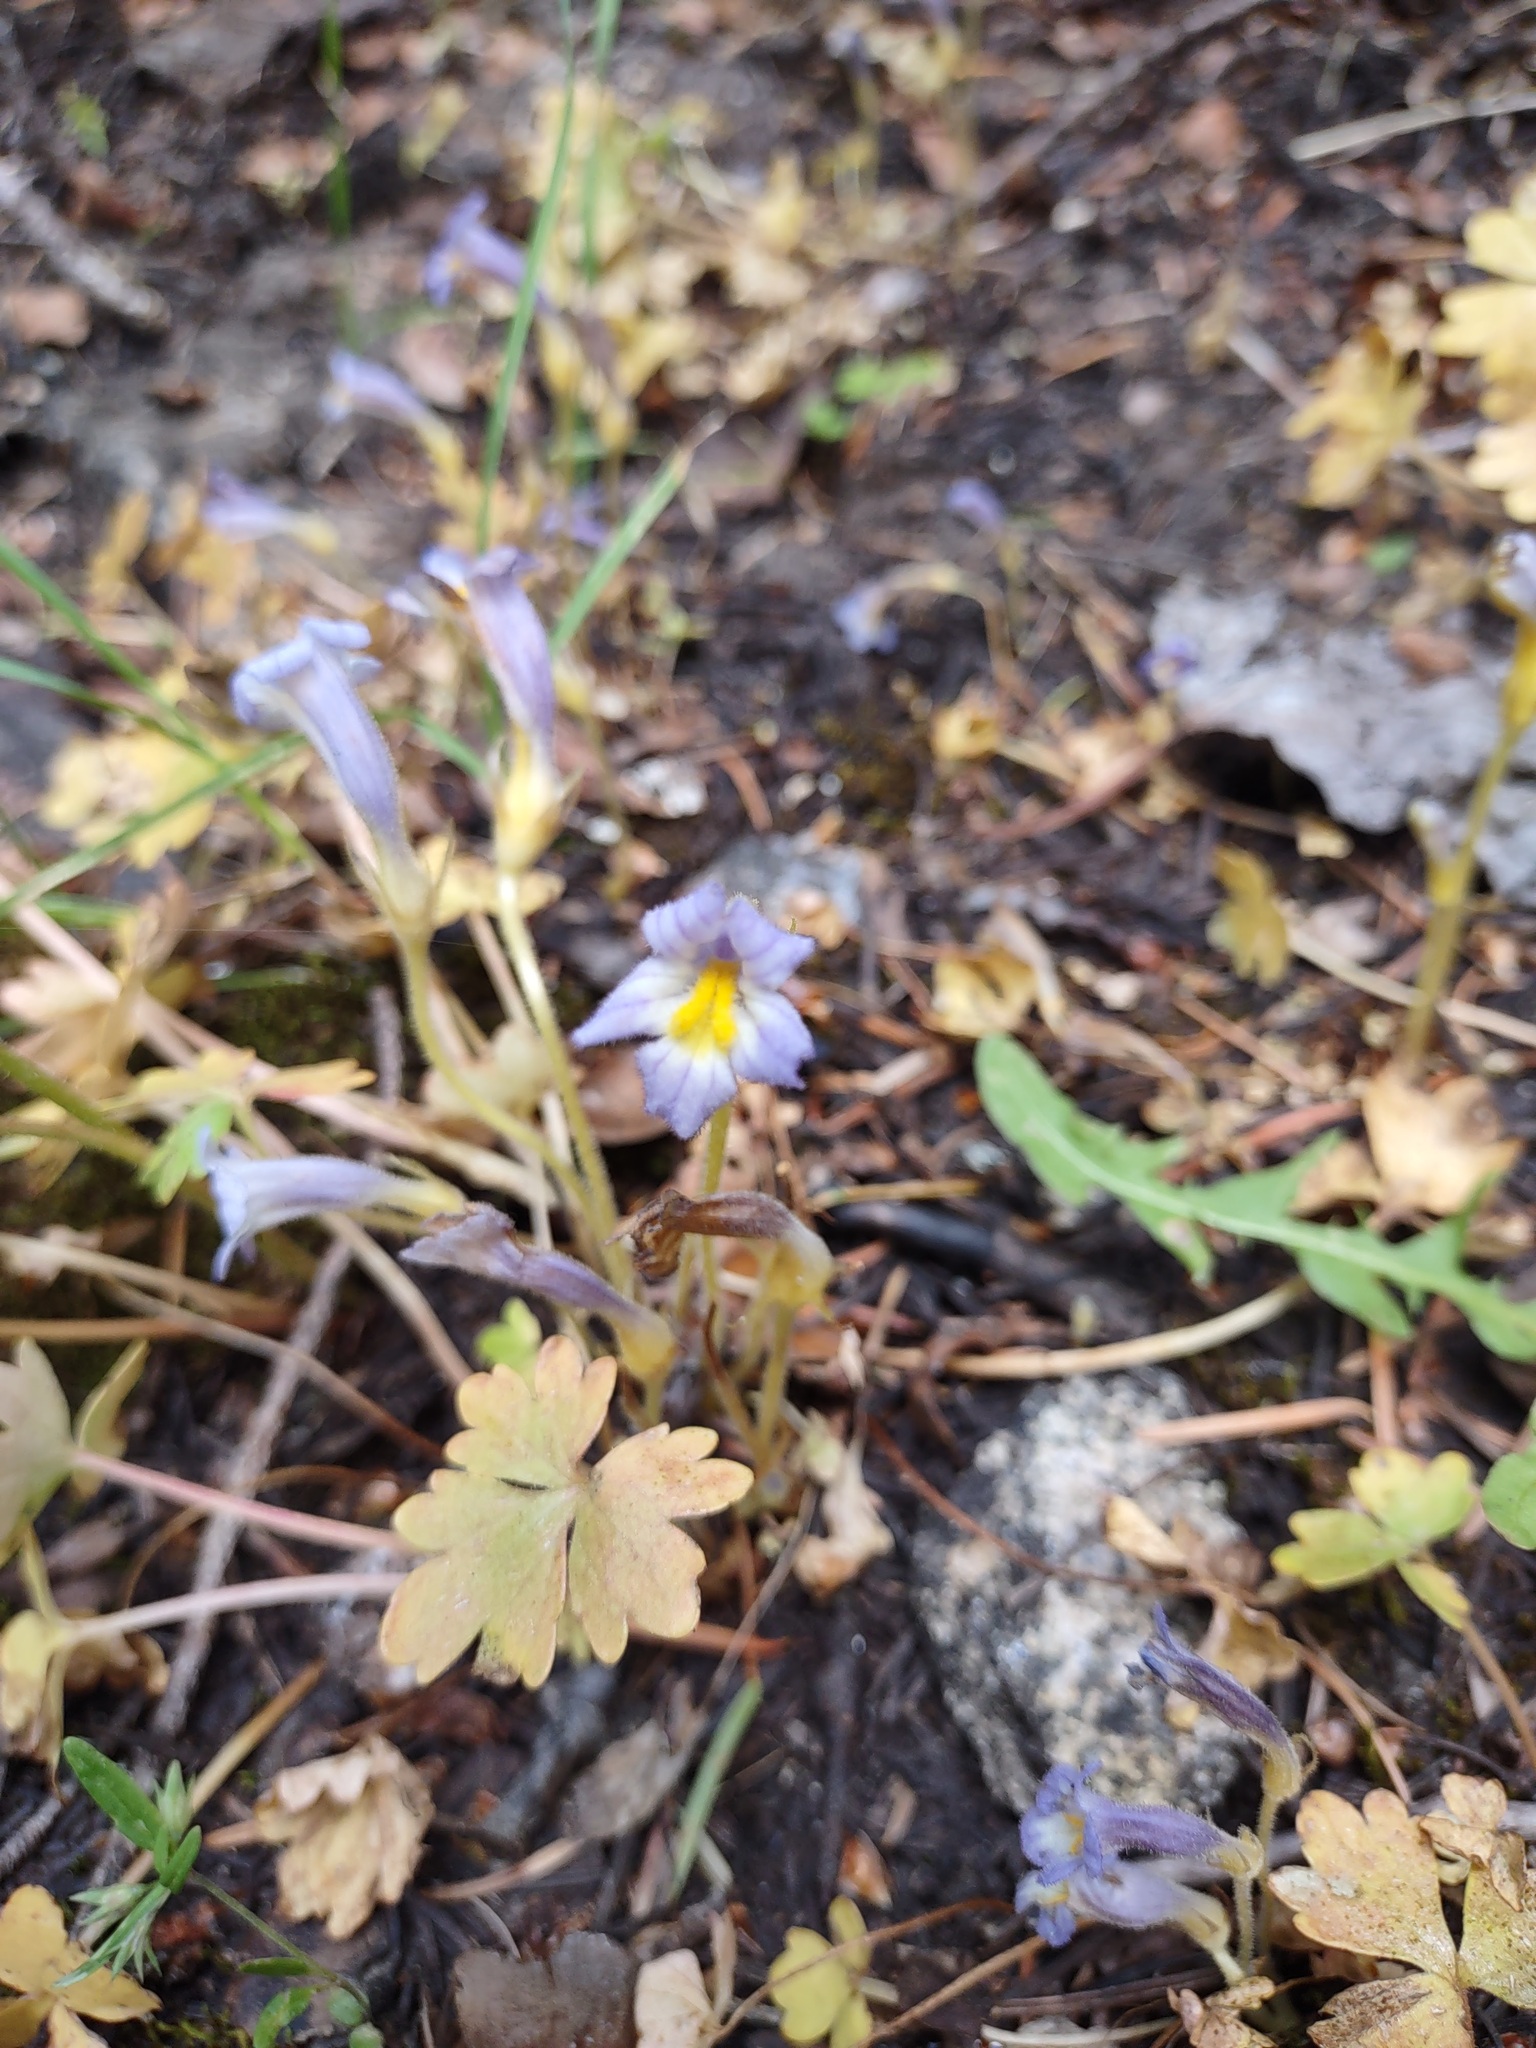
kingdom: Plantae
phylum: Tracheophyta
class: Magnoliopsida
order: Lamiales
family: Orobanchaceae
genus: Aphyllon
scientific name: Aphyllon uniflorum
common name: One-flowered broomrape
